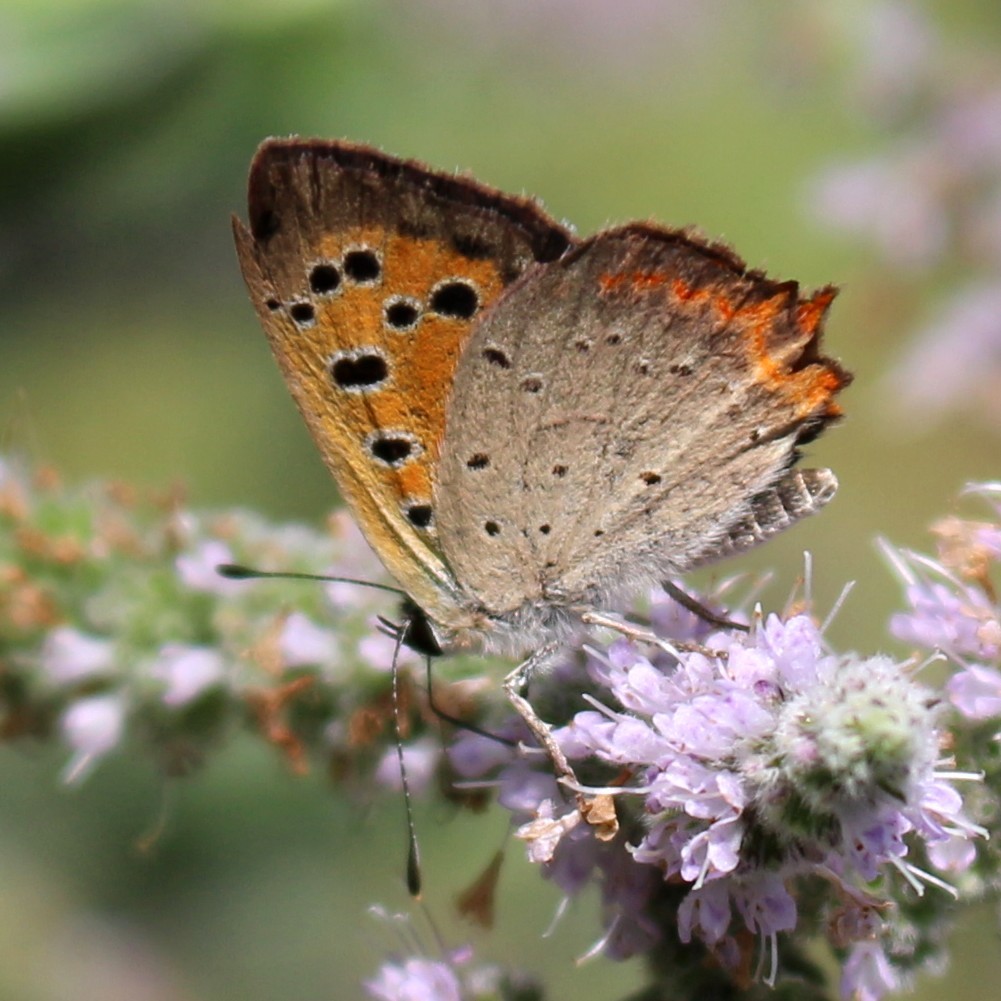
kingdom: Animalia
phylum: Arthropoda
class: Insecta
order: Lepidoptera
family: Lycaenidae
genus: Lycaena
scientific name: Lycaena phlaeas
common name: Small copper
